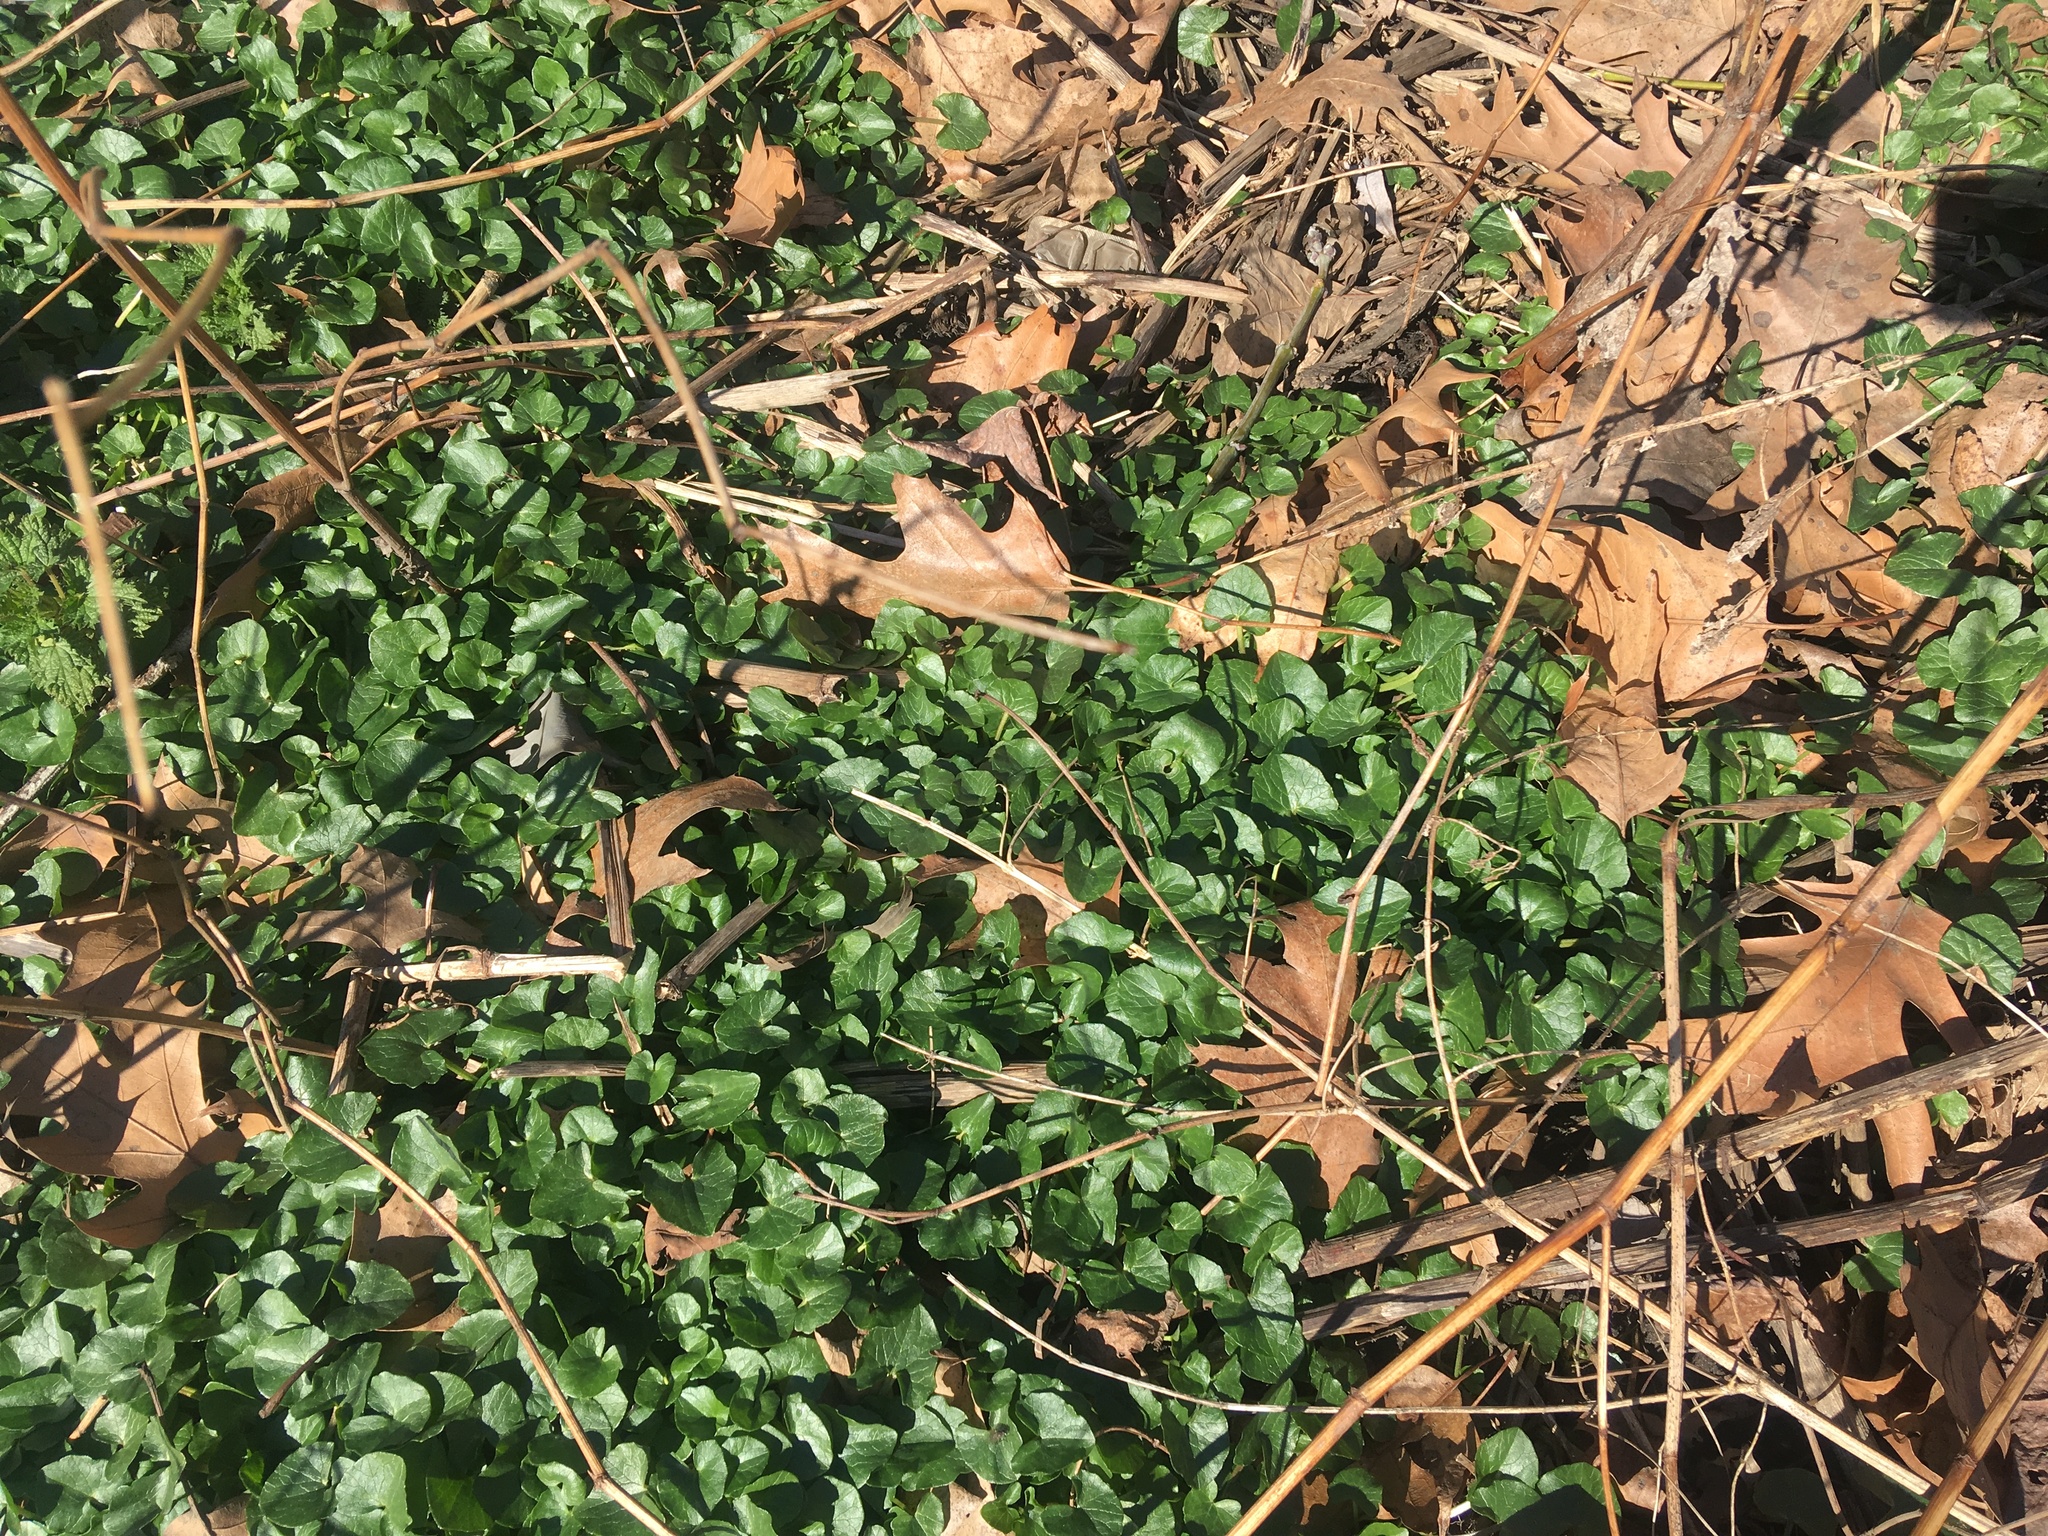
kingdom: Plantae
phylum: Tracheophyta
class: Magnoliopsida
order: Ranunculales
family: Ranunculaceae
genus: Ficaria
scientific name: Ficaria verna
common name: Lesser celandine
